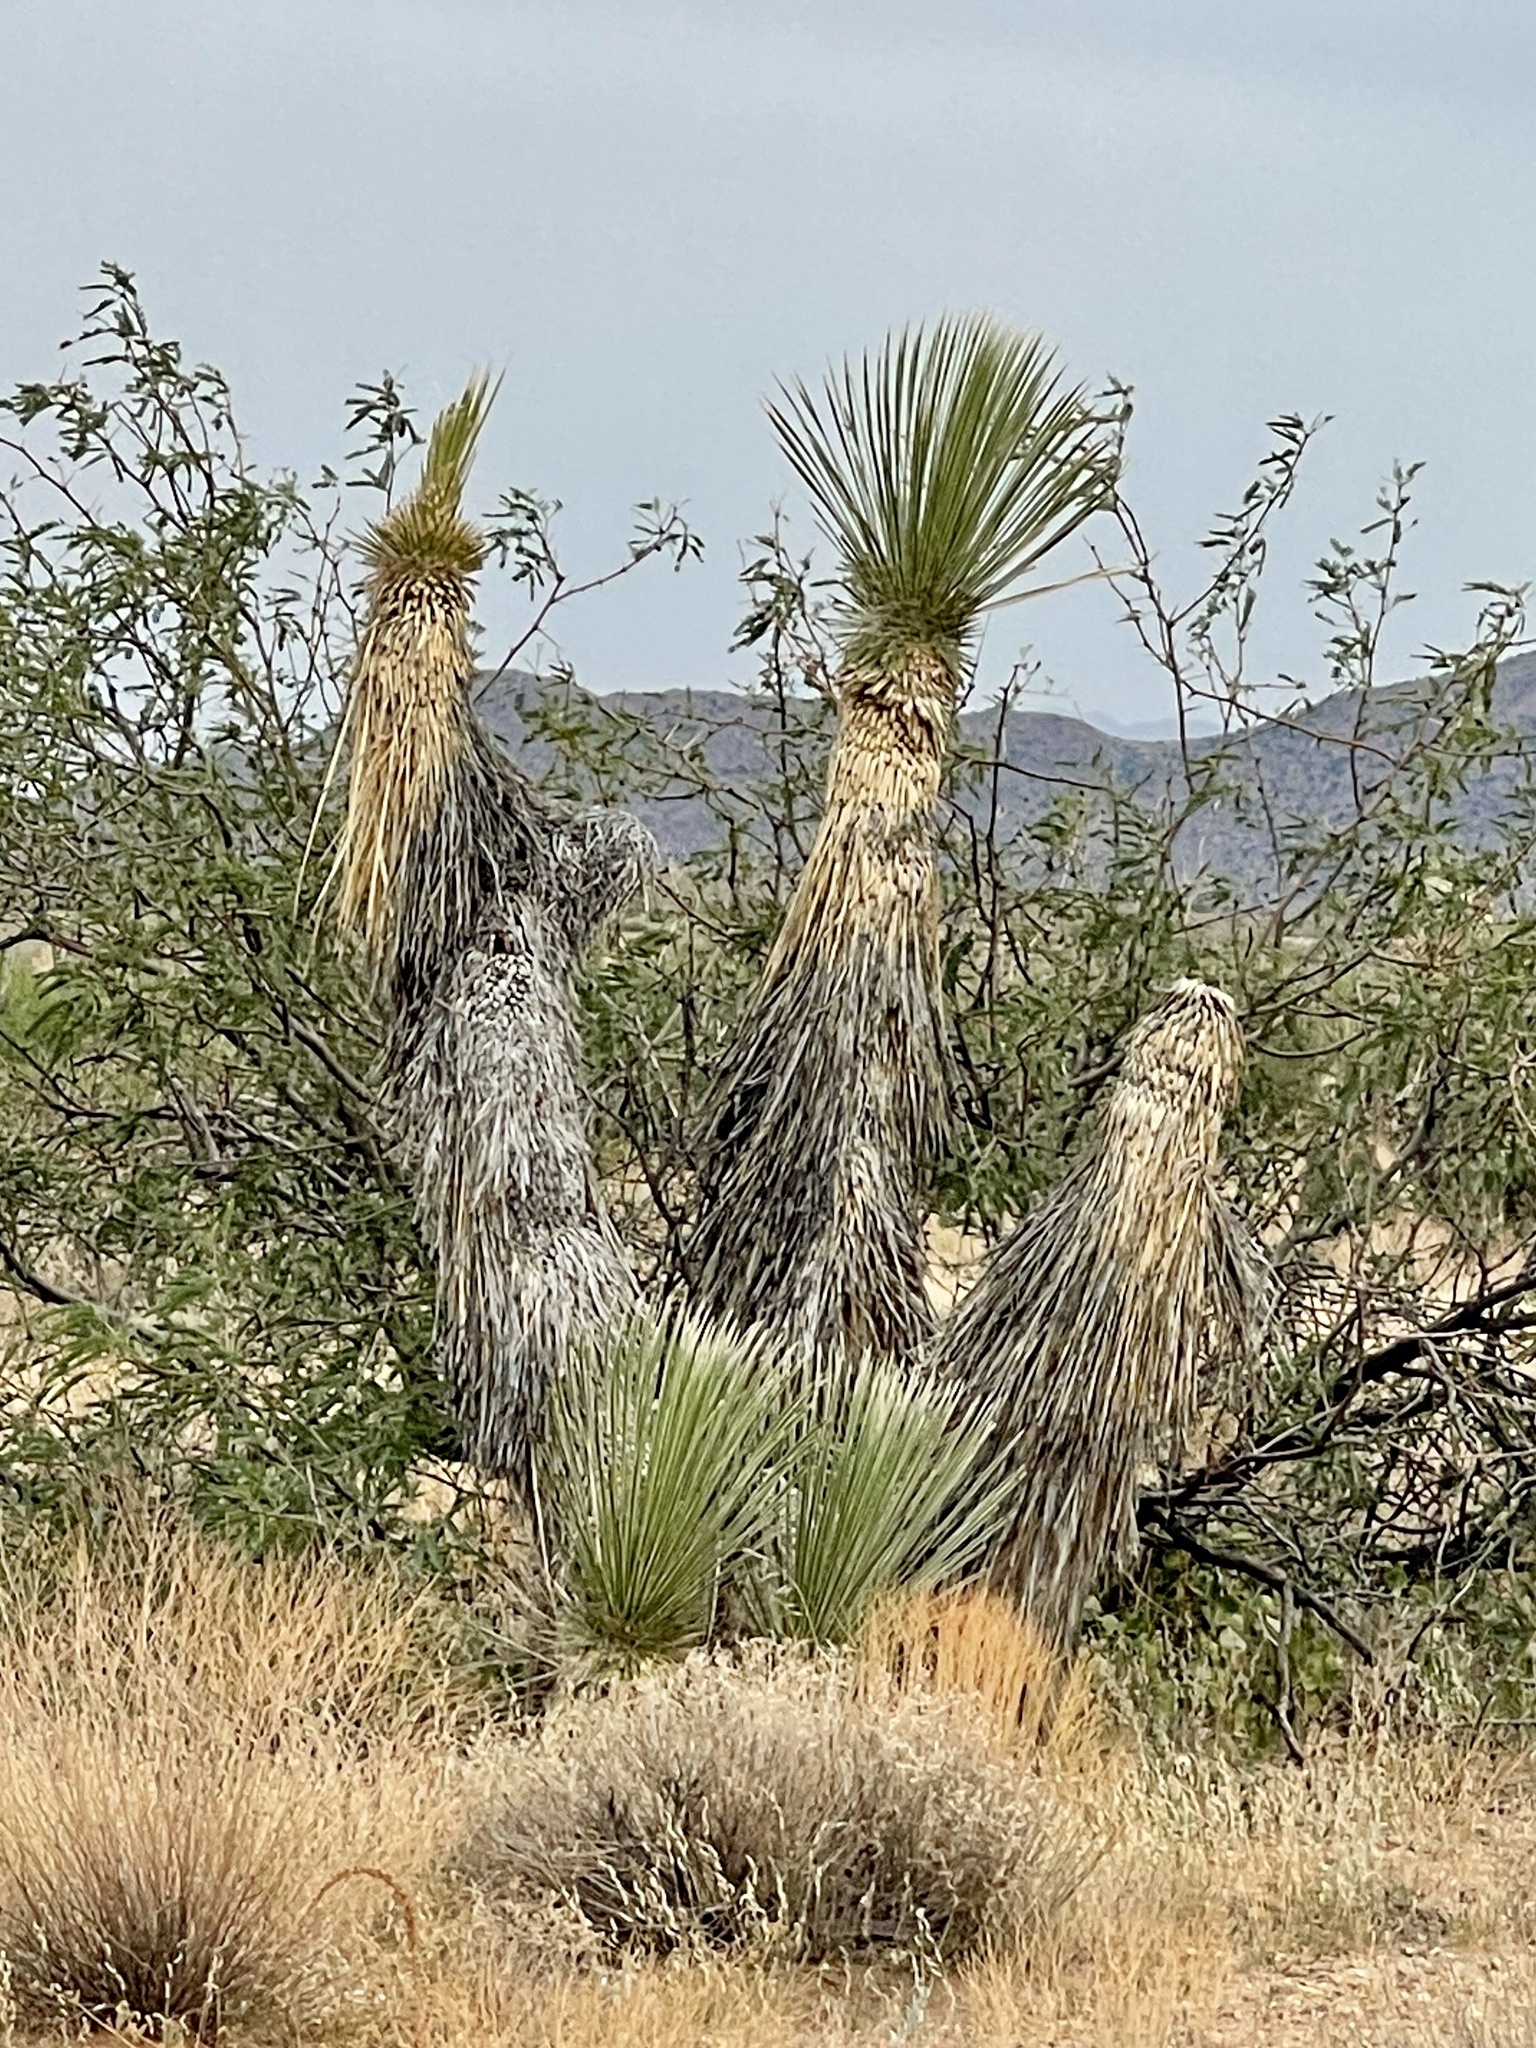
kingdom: Plantae
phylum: Tracheophyta
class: Liliopsida
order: Asparagales
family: Asparagaceae
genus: Yucca
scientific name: Yucca elata
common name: Palmella
